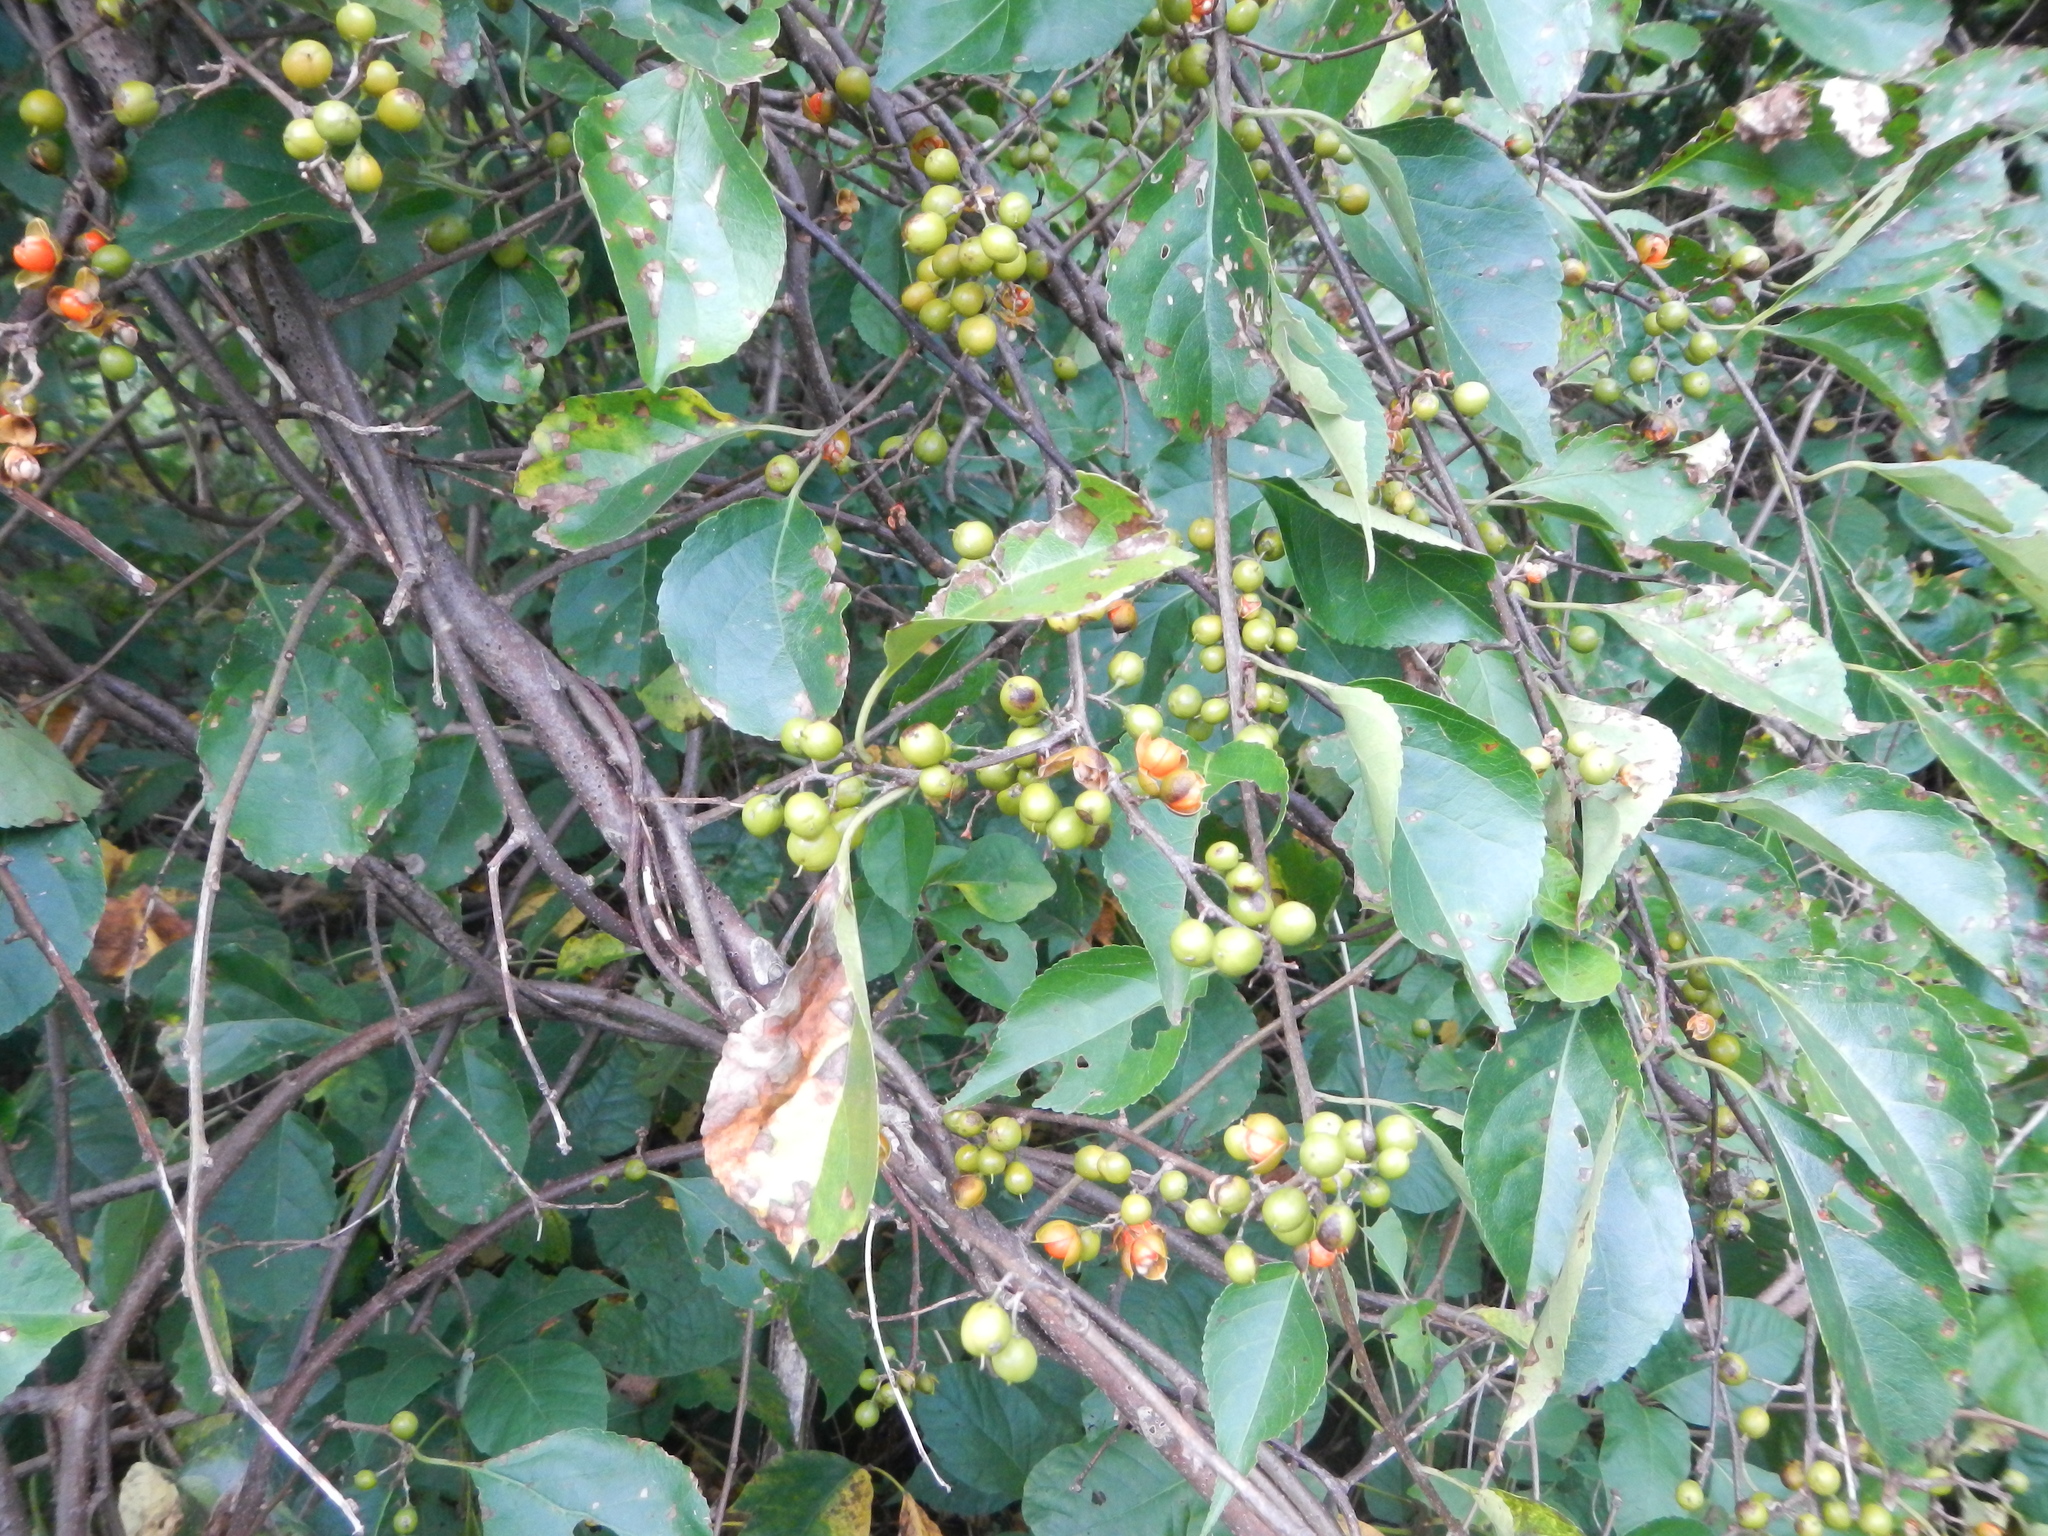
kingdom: Plantae
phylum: Tracheophyta
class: Magnoliopsida
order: Celastrales
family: Celastraceae
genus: Celastrus
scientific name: Celastrus orbiculatus
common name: Oriental bittersweet
